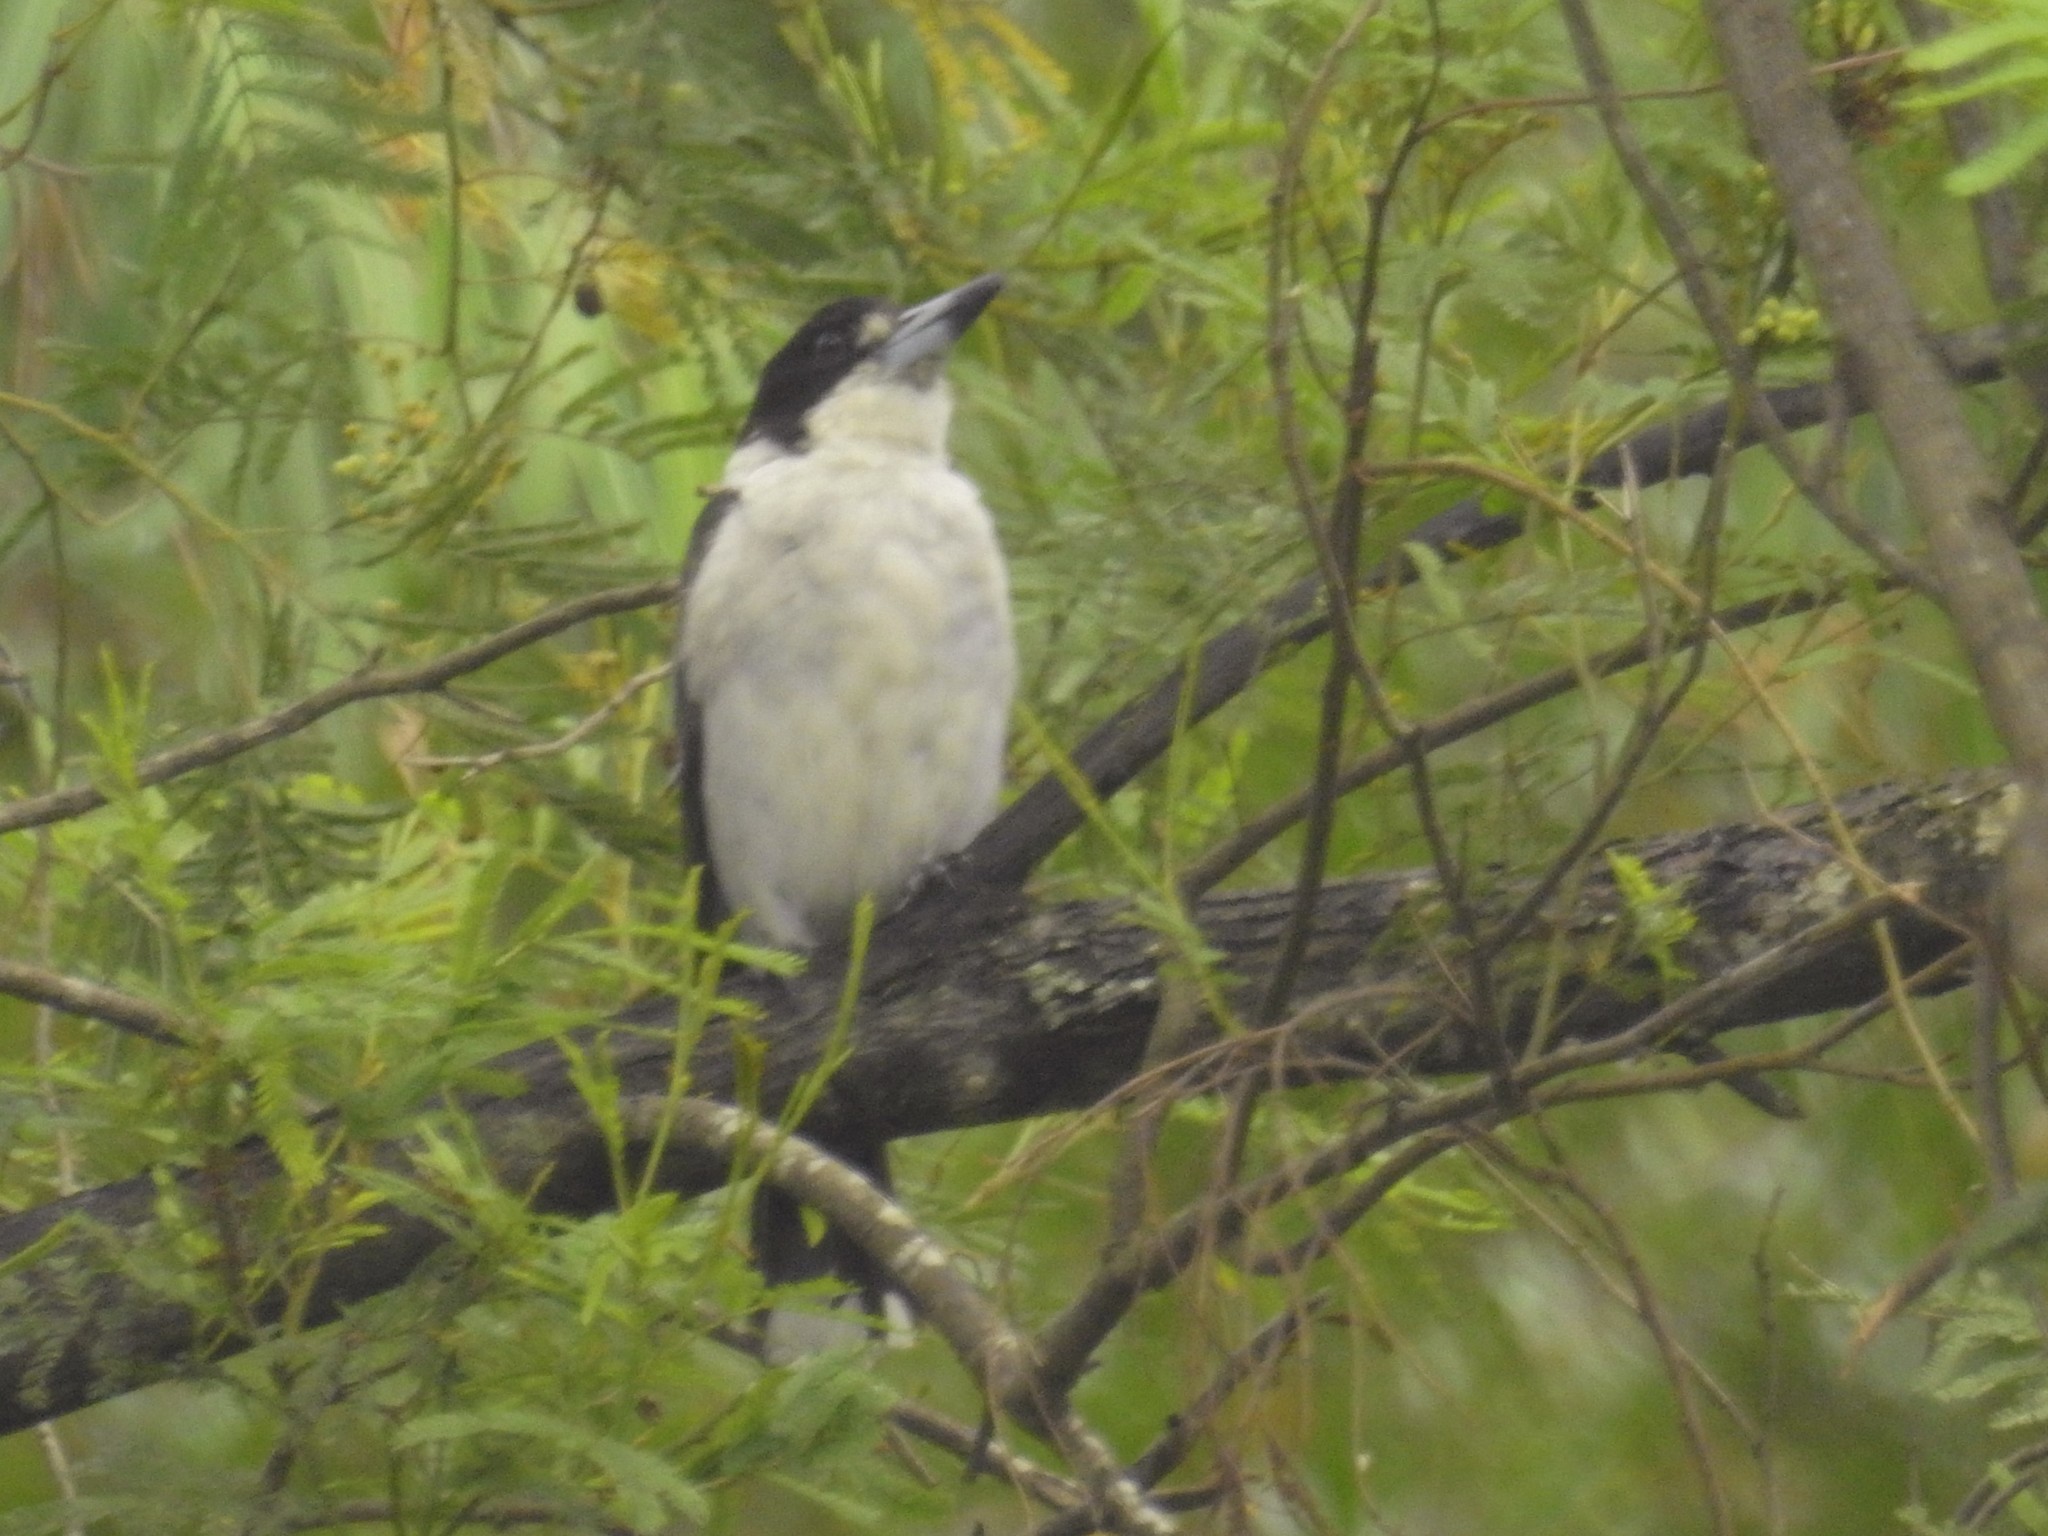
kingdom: Animalia
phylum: Chordata
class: Aves
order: Passeriformes
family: Cracticidae
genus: Cracticus
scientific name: Cracticus torquatus
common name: Grey butcherbird
